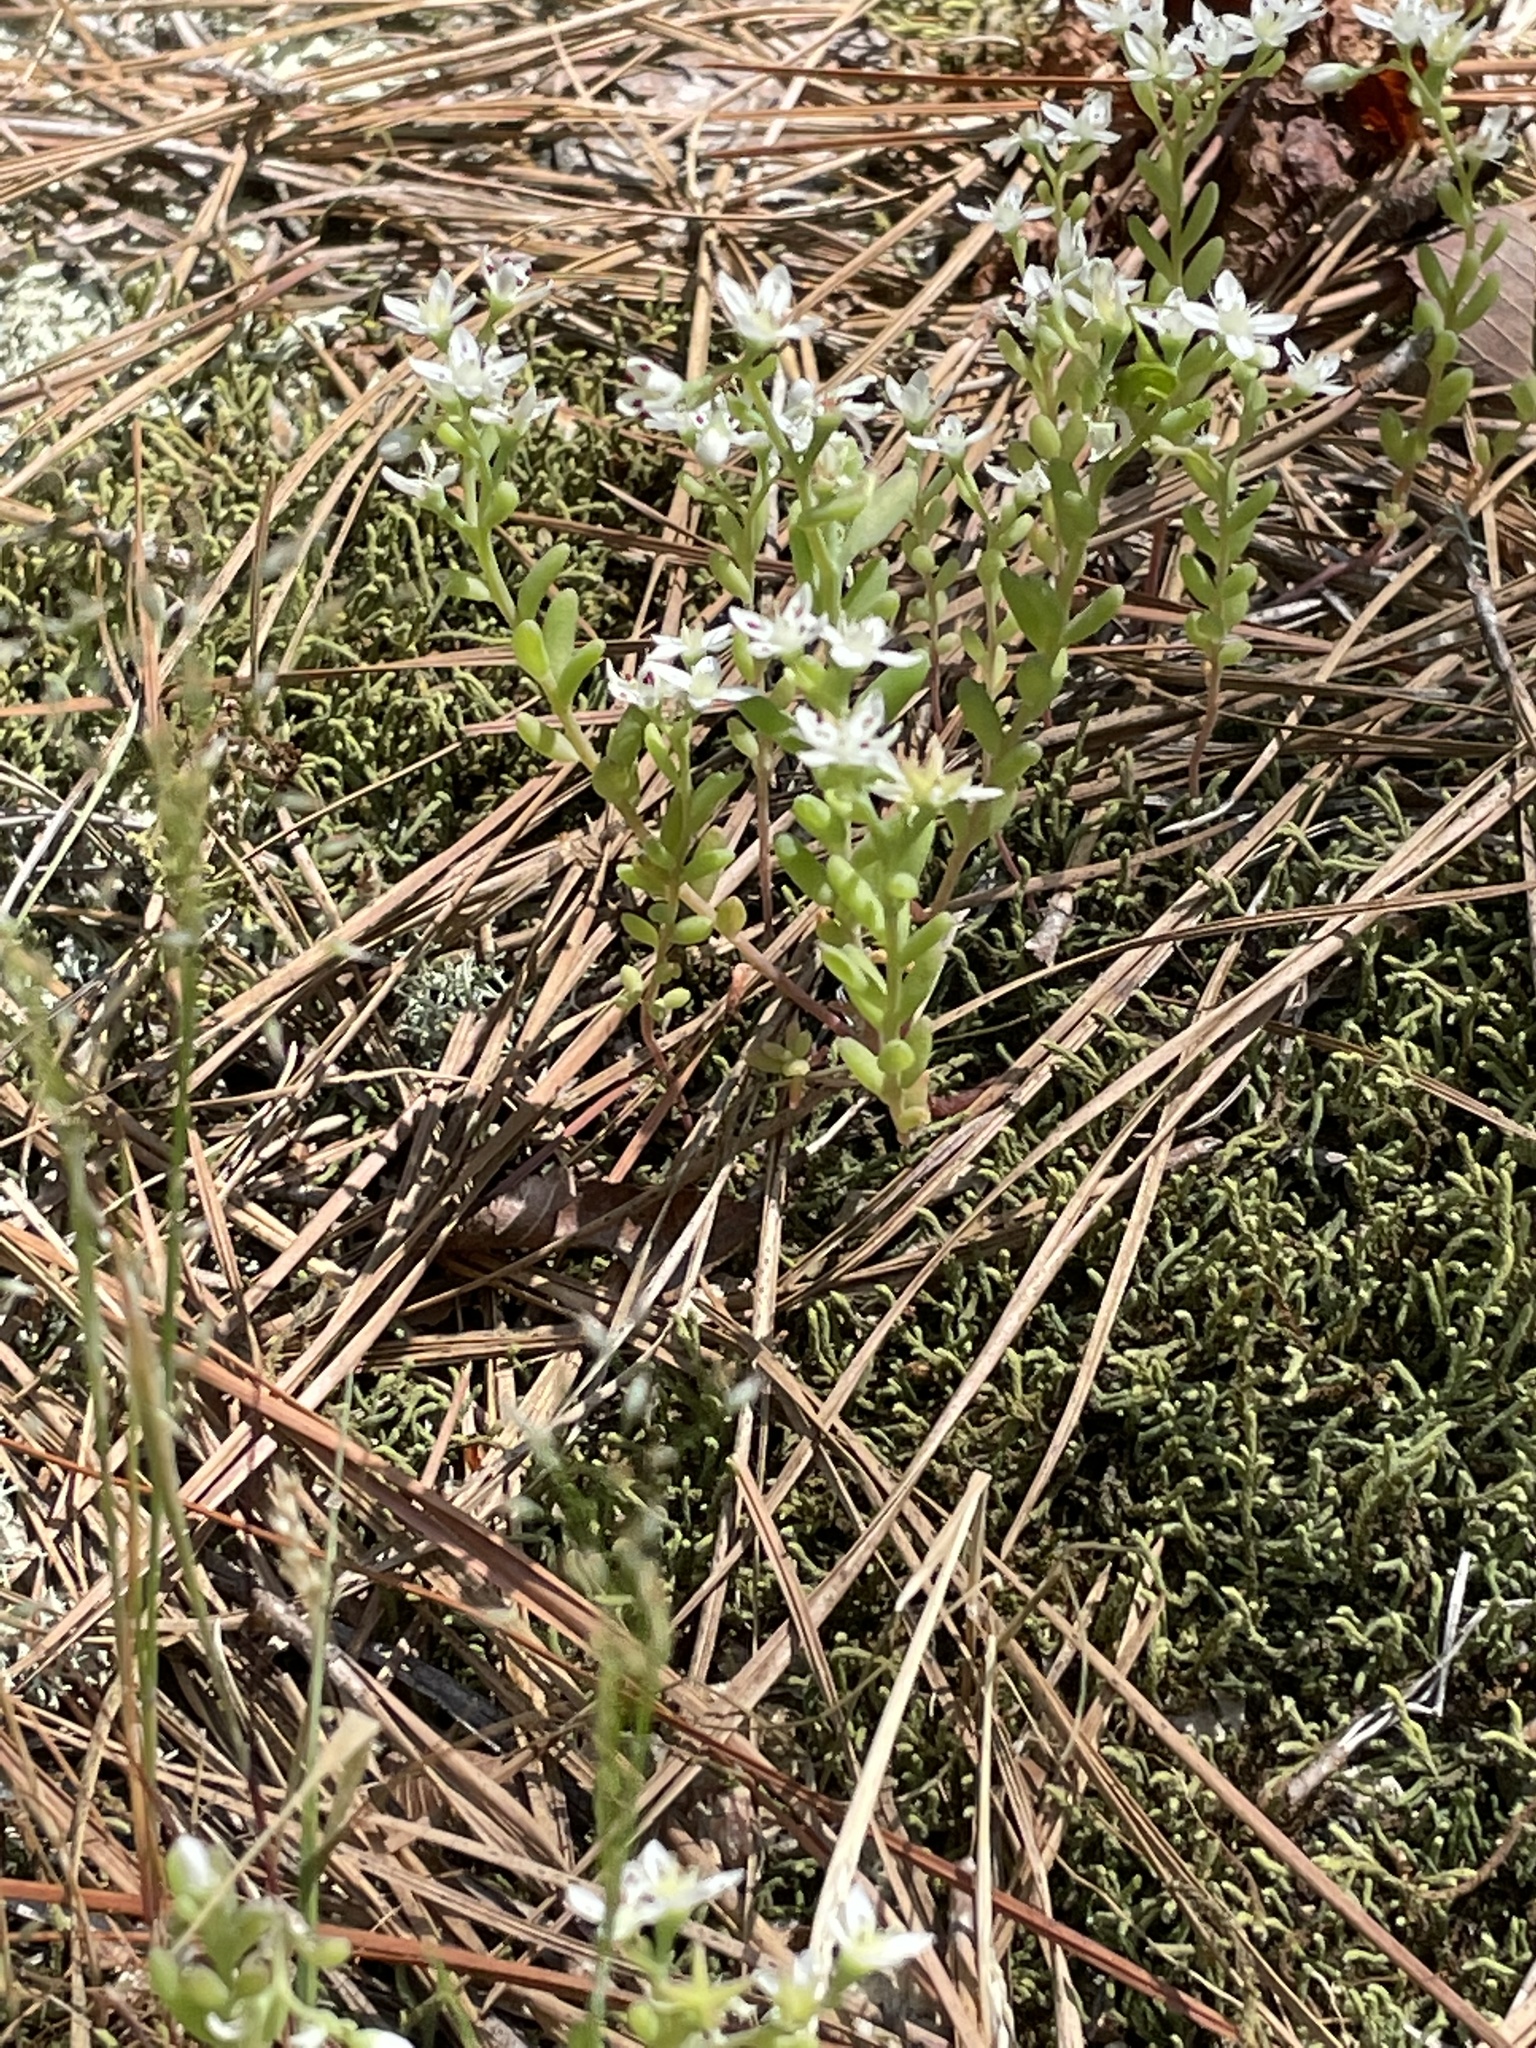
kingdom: Plantae
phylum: Tracheophyta
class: Magnoliopsida
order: Saxifragales
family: Crassulaceae
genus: Sedum
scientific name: Sedum pusillum
